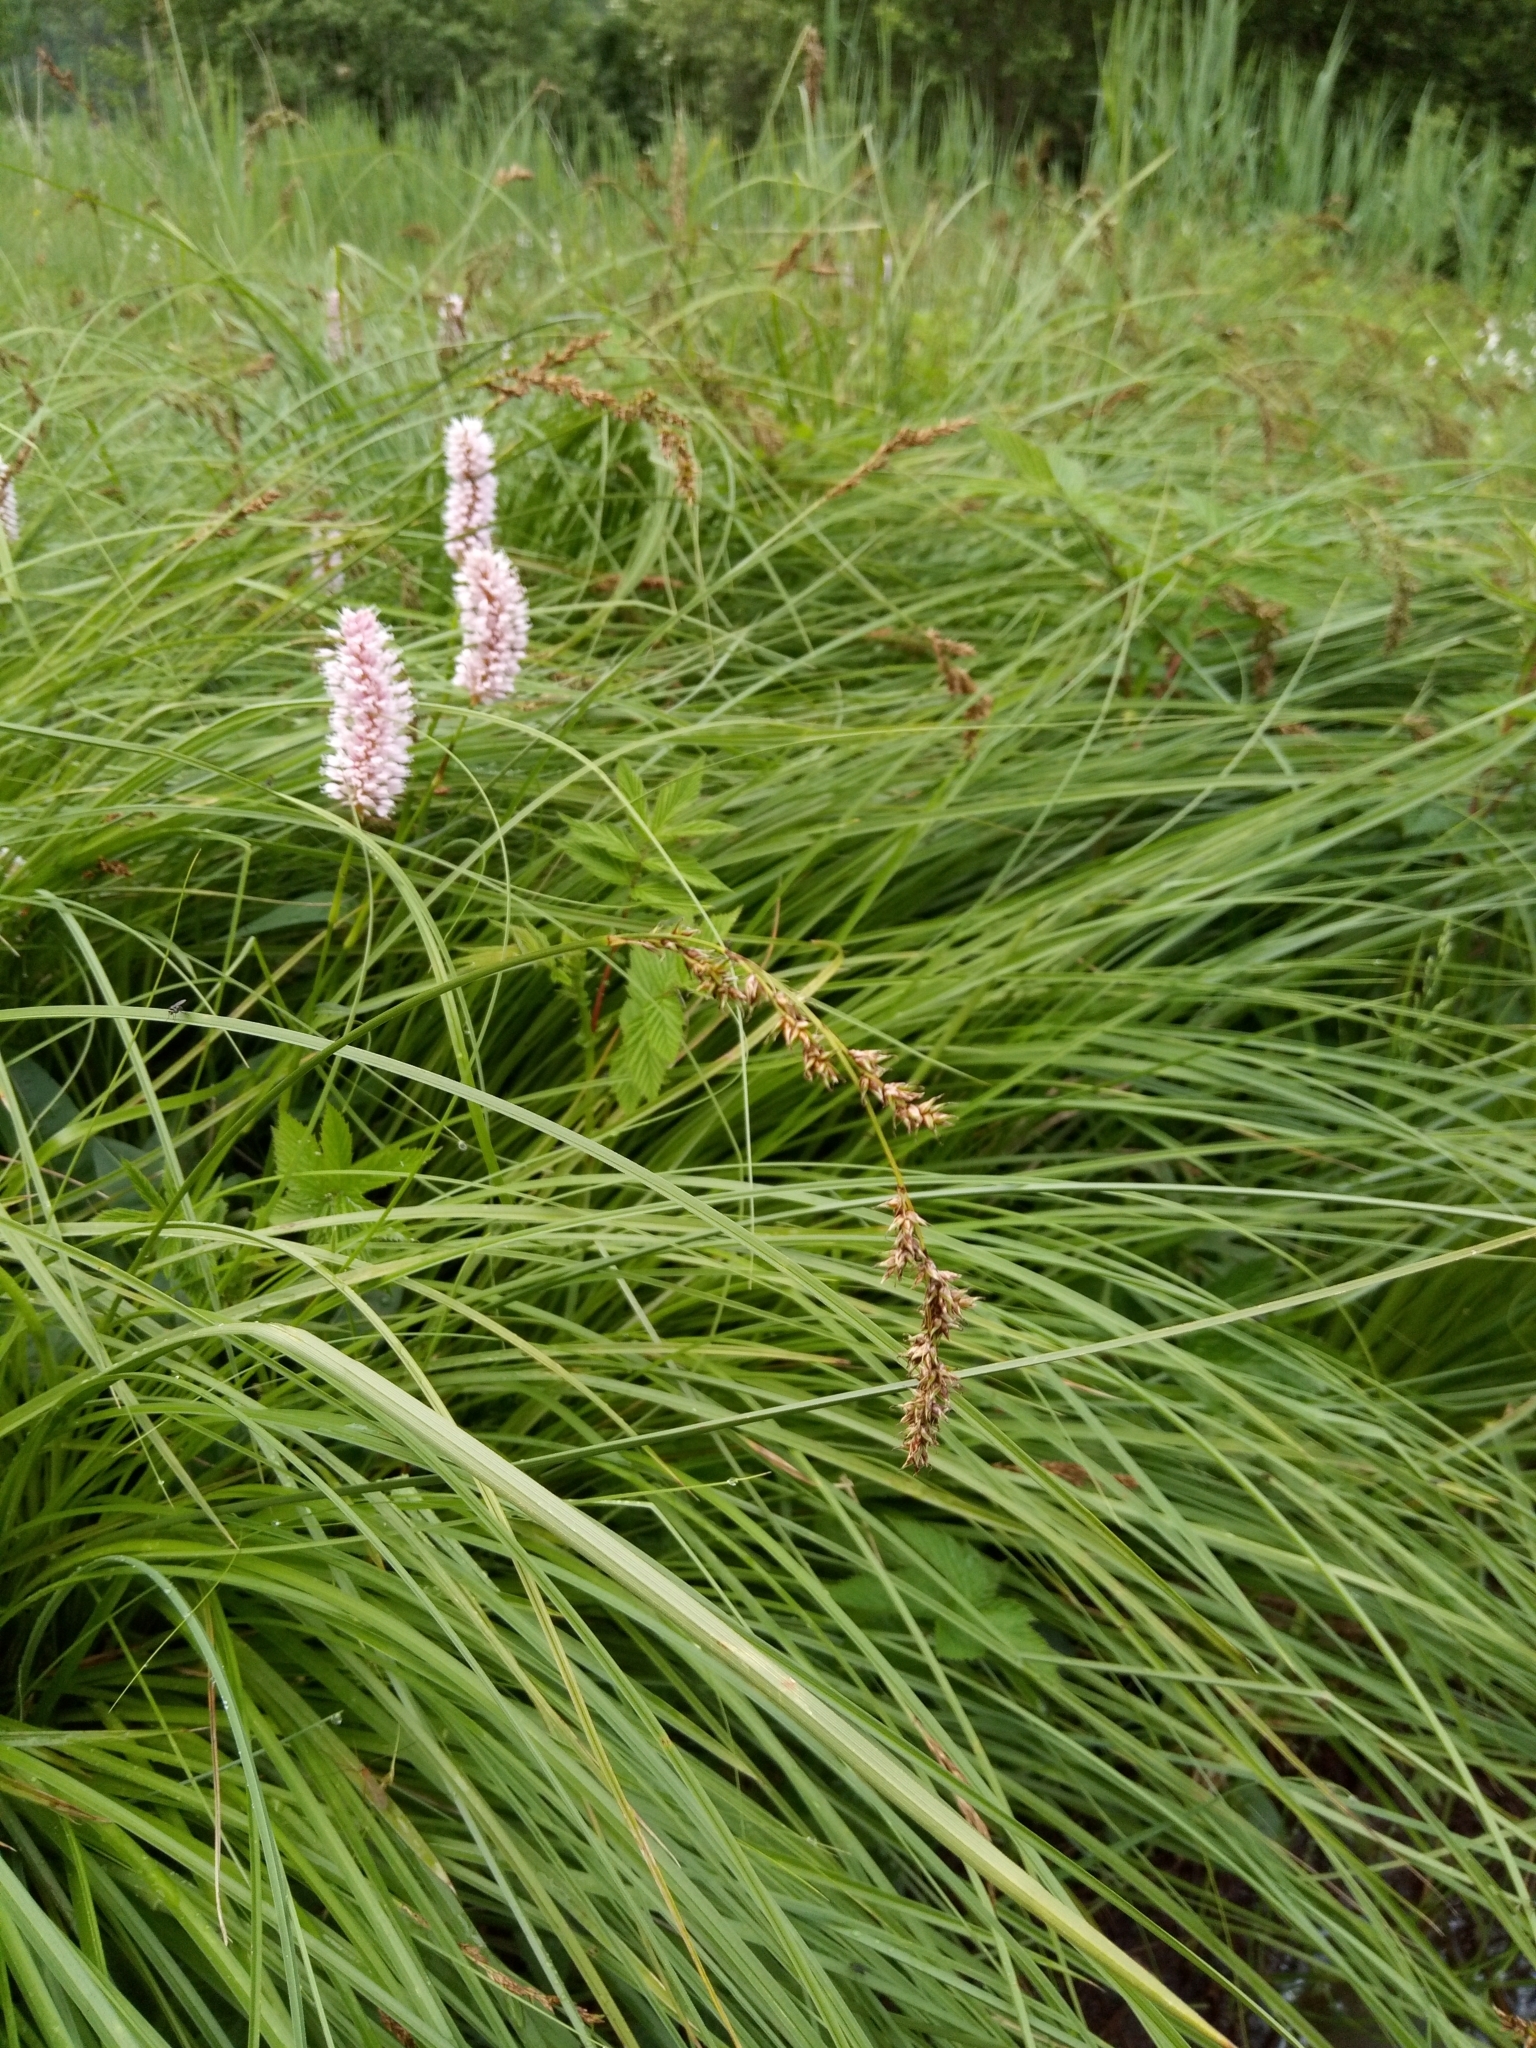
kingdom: Plantae
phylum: Tracheophyta
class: Liliopsida
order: Poales
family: Cyperaceae
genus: Carex
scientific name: Carex paniculata
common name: Greater tussock-sedge
